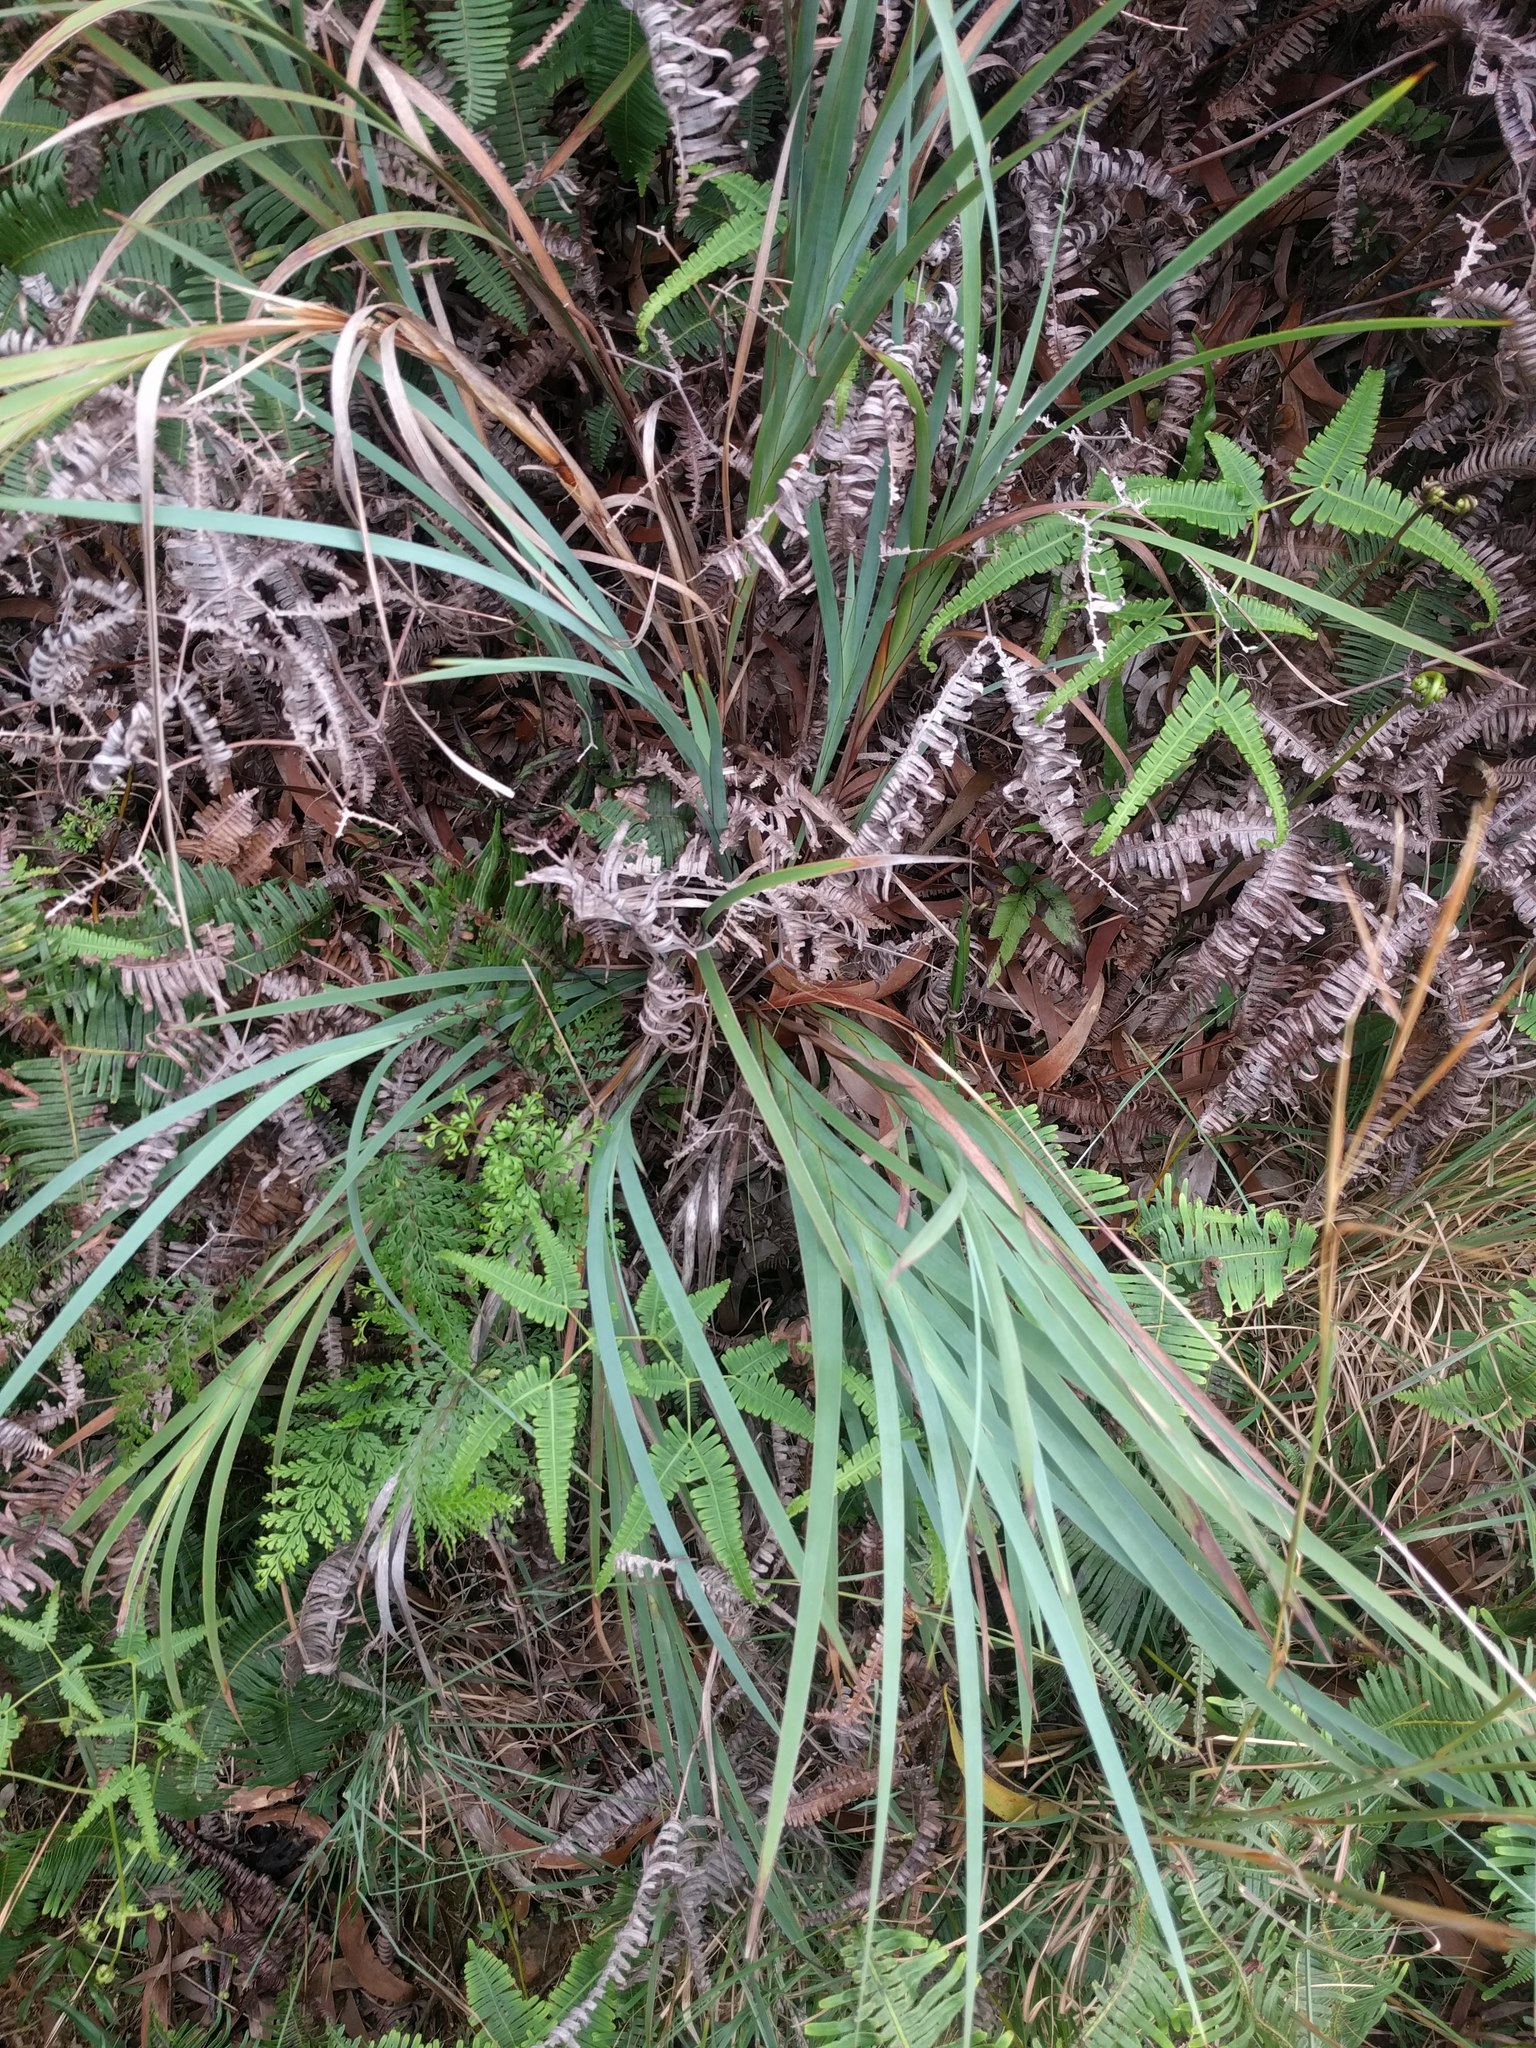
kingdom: Plantae
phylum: Tracheophyta
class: Liliopsida
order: Poales
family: Cyperaceae
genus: Machaerina
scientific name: Machaerina mariscoides
